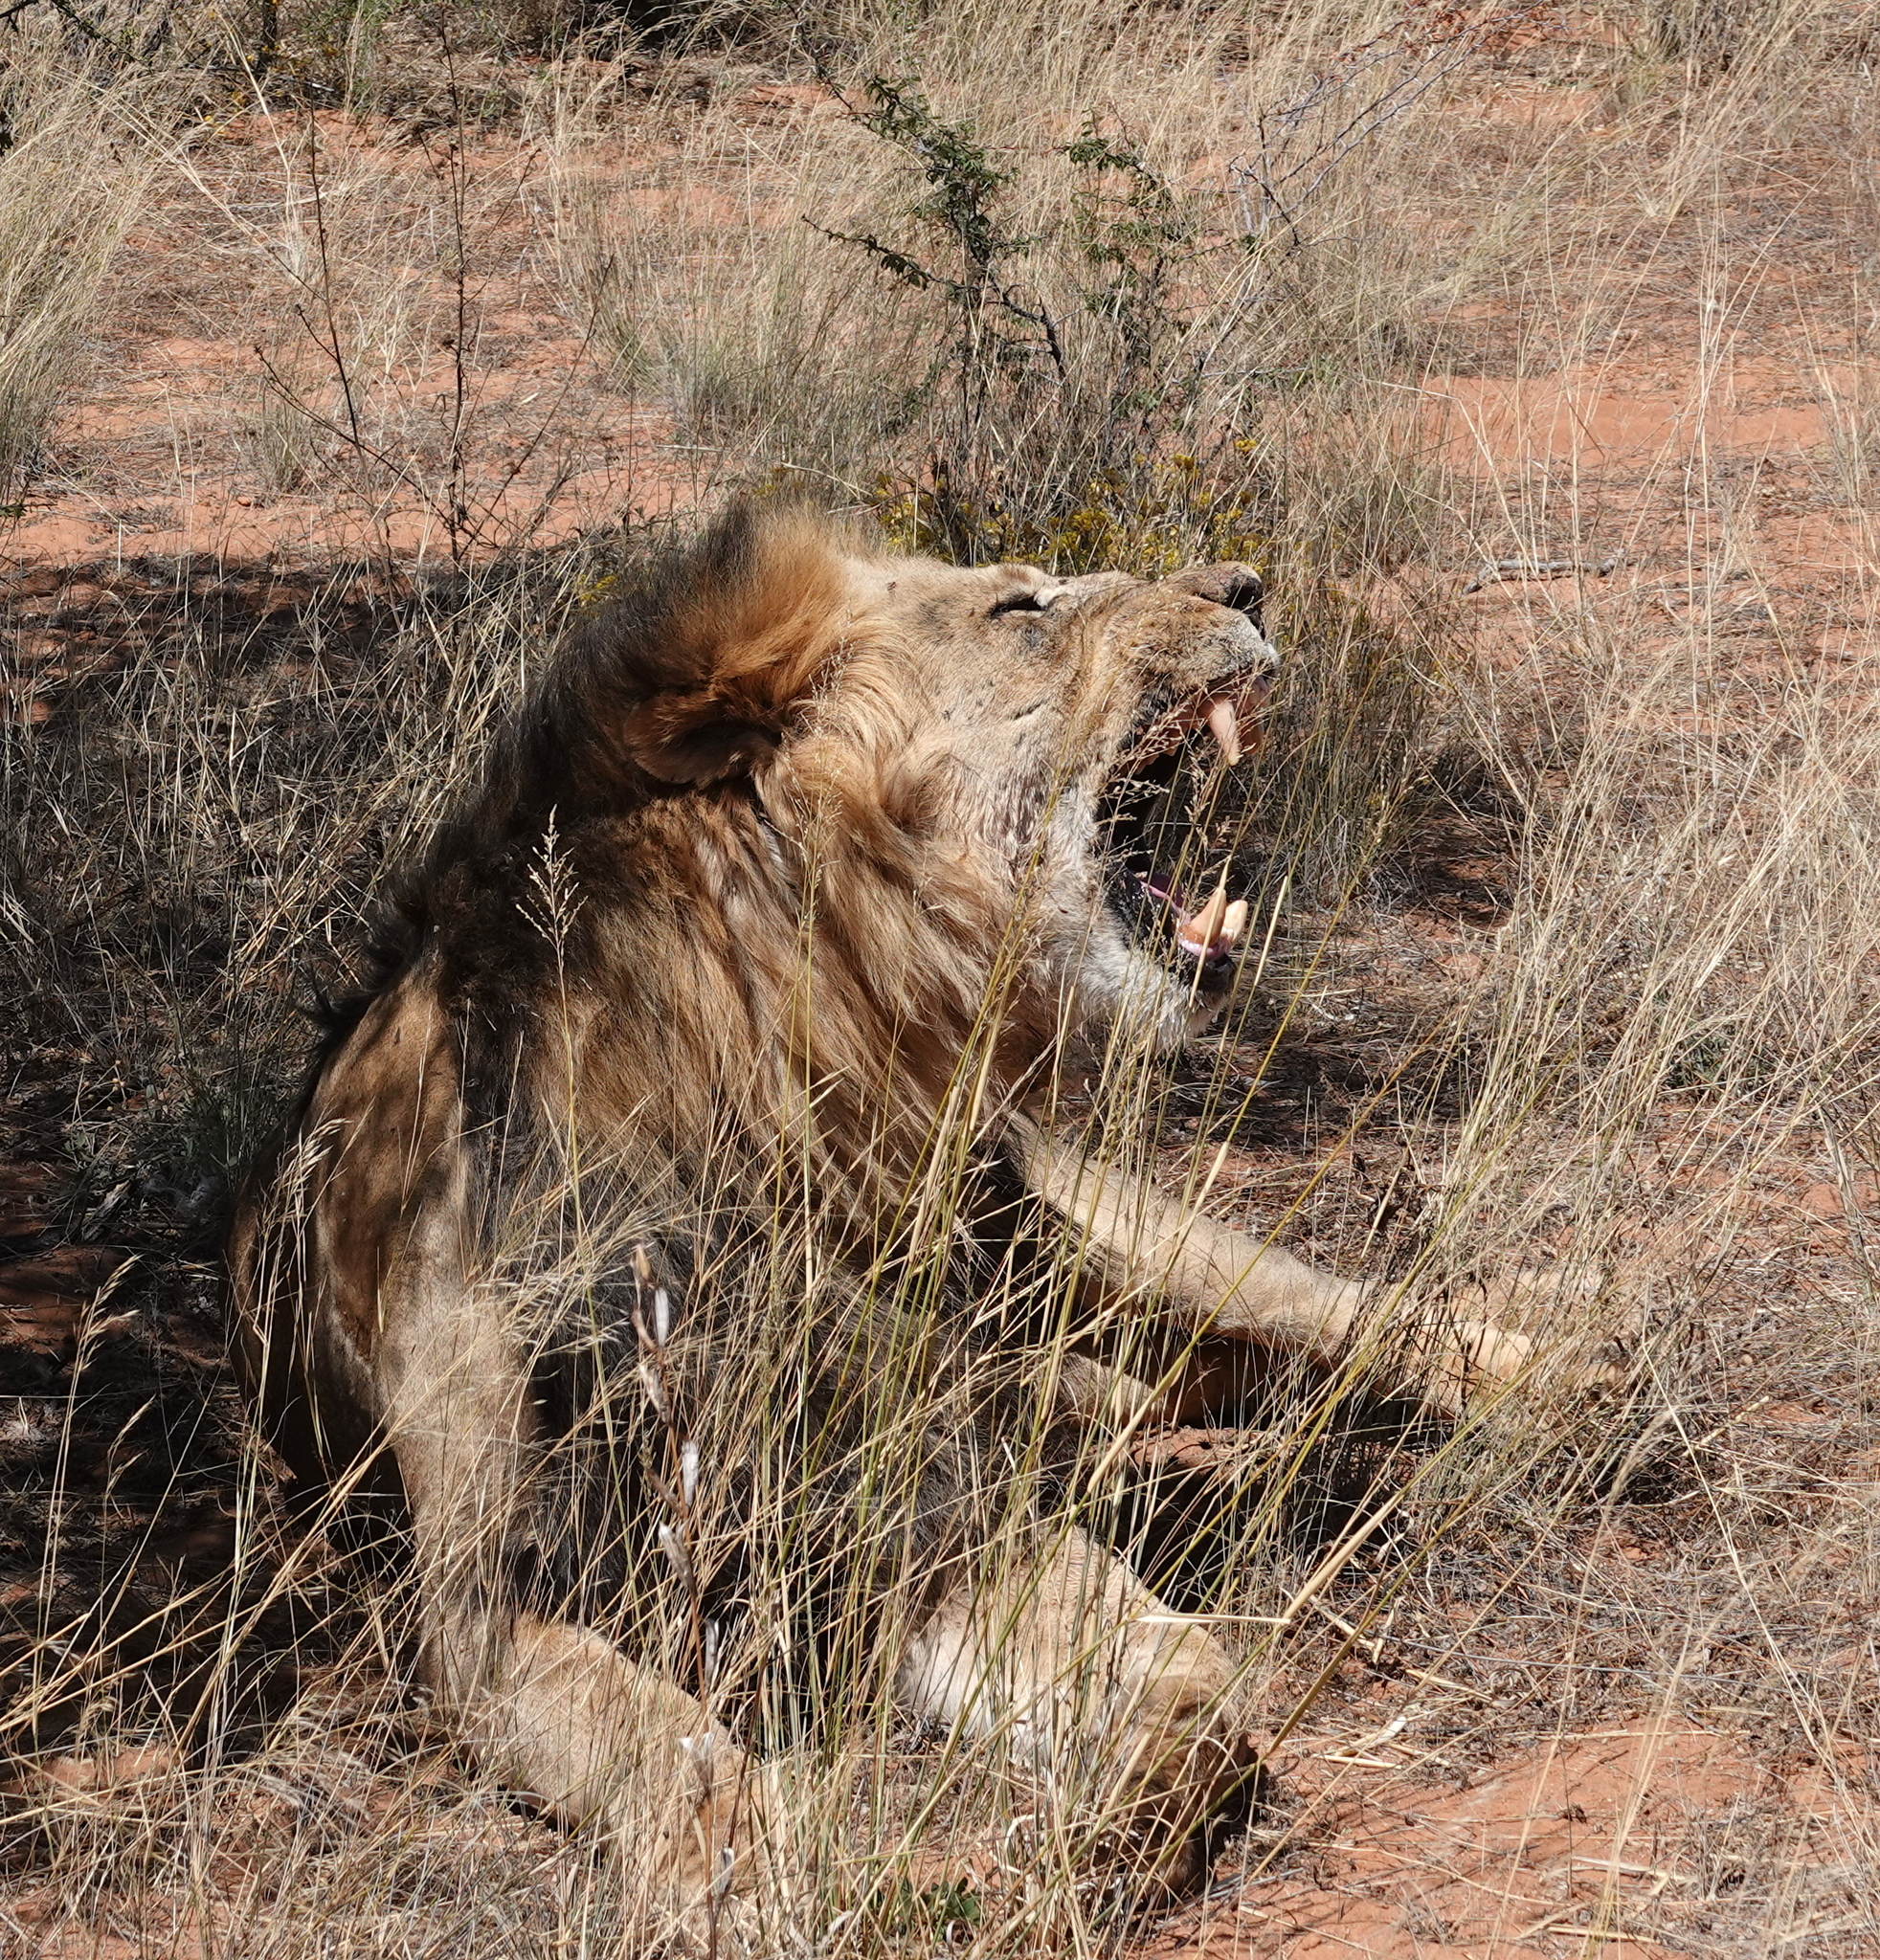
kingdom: Animalia
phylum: Chordata
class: Mammalia
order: Carnivora
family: Felidae
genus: Panthera
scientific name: Panthera leo
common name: Lion
